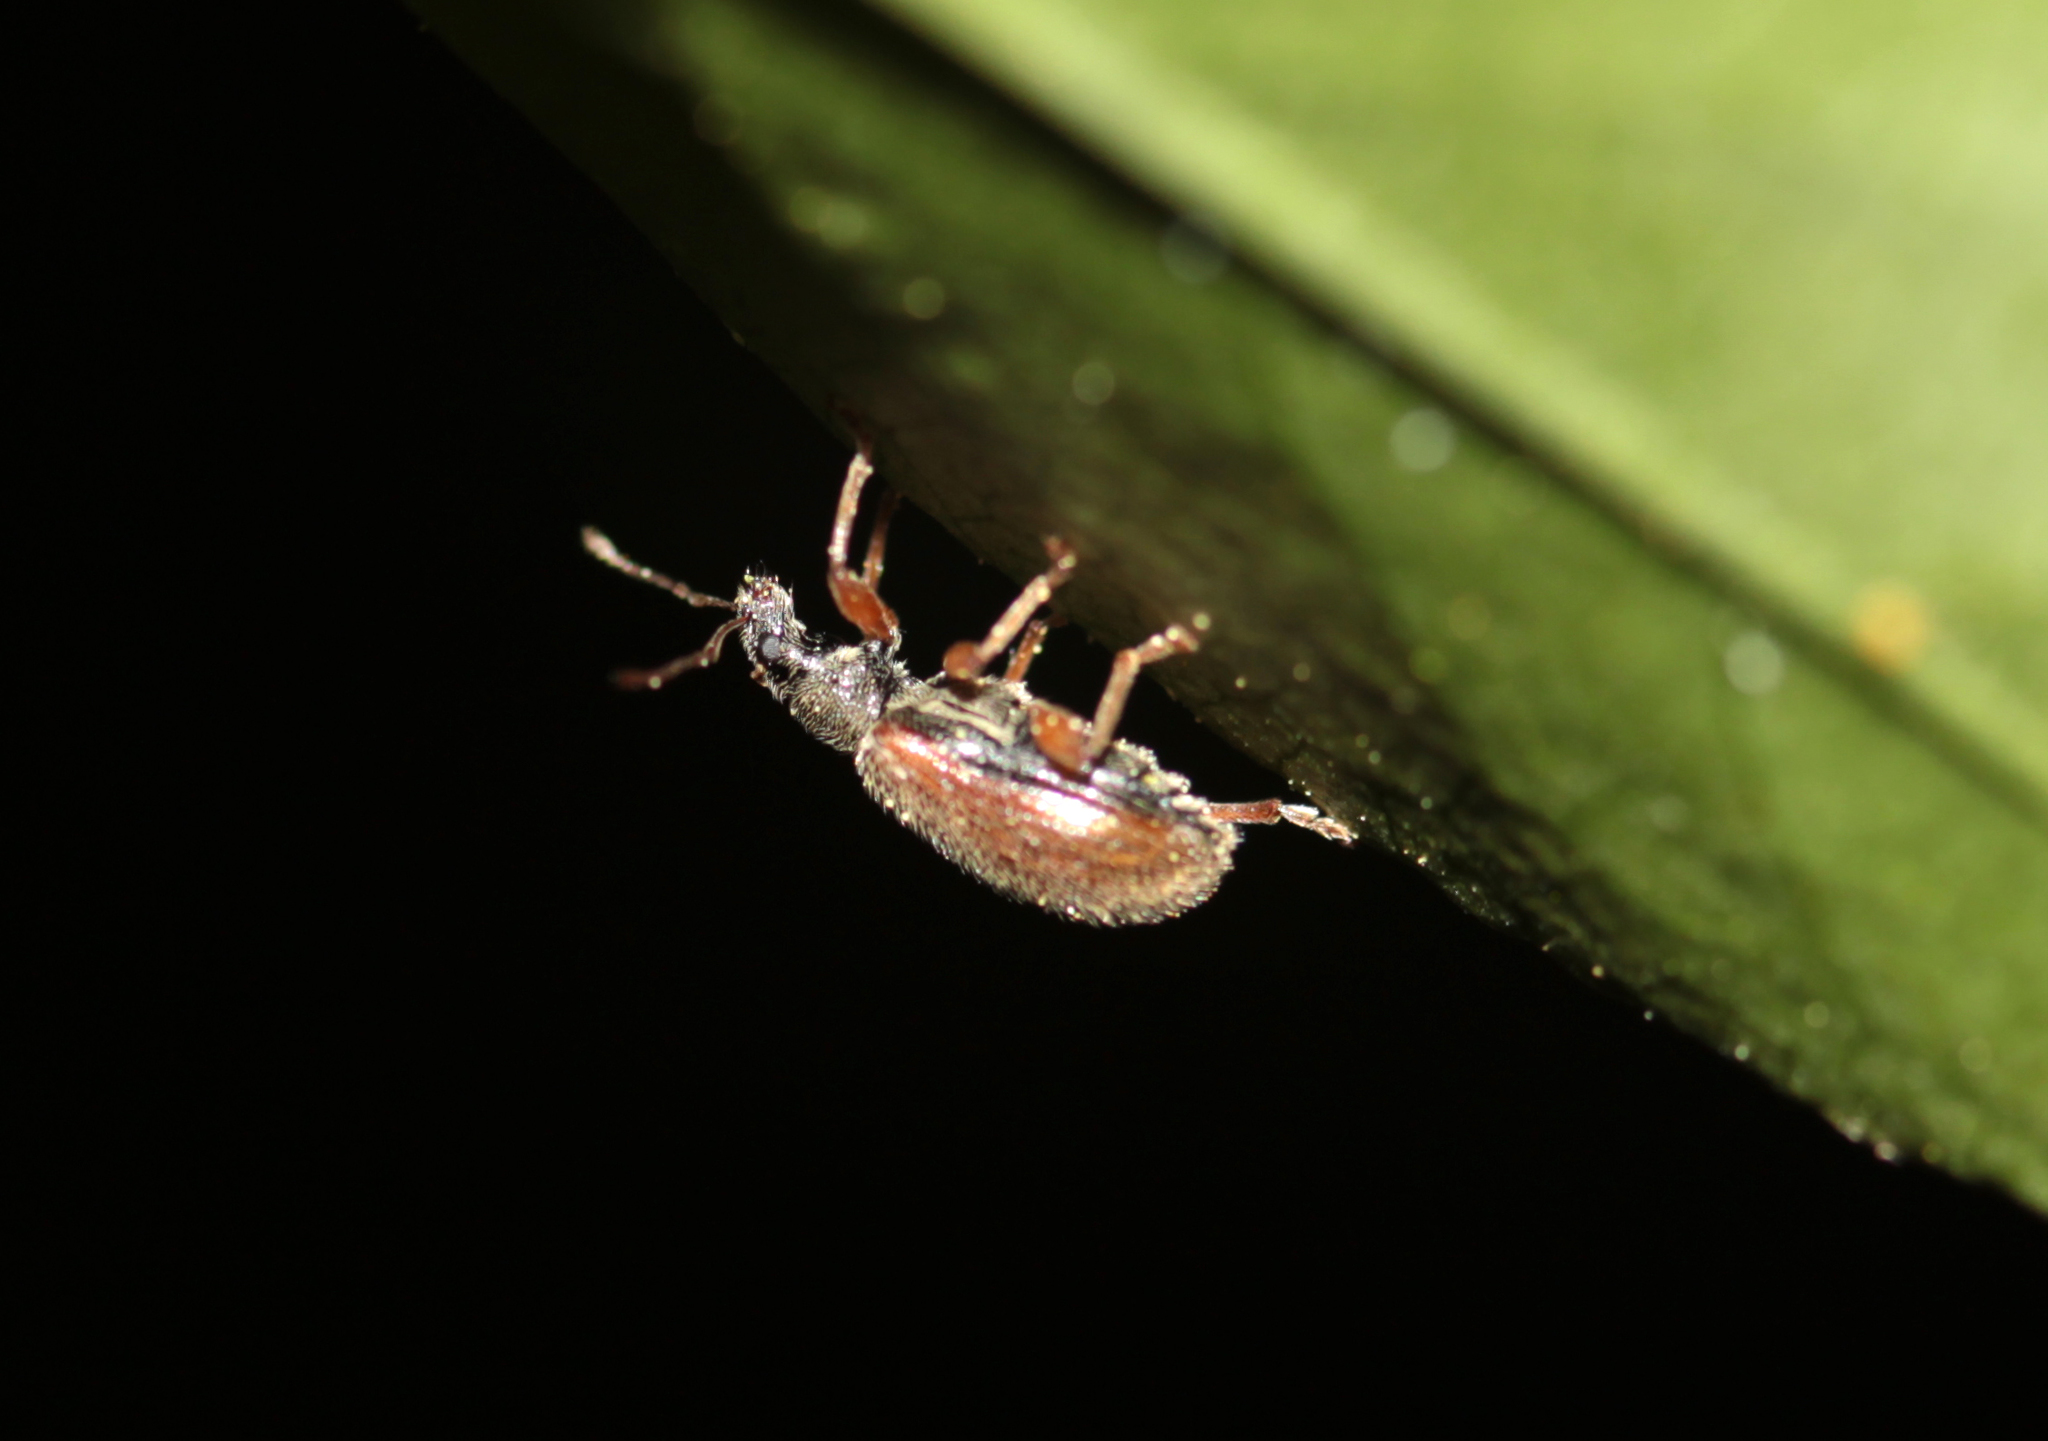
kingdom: Animalia
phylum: Arthropoda
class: Insecta
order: Coleoptera
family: Curculionidae
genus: Phyllobius
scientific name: Phyllobius oblongus
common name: Brown leaf weevil
